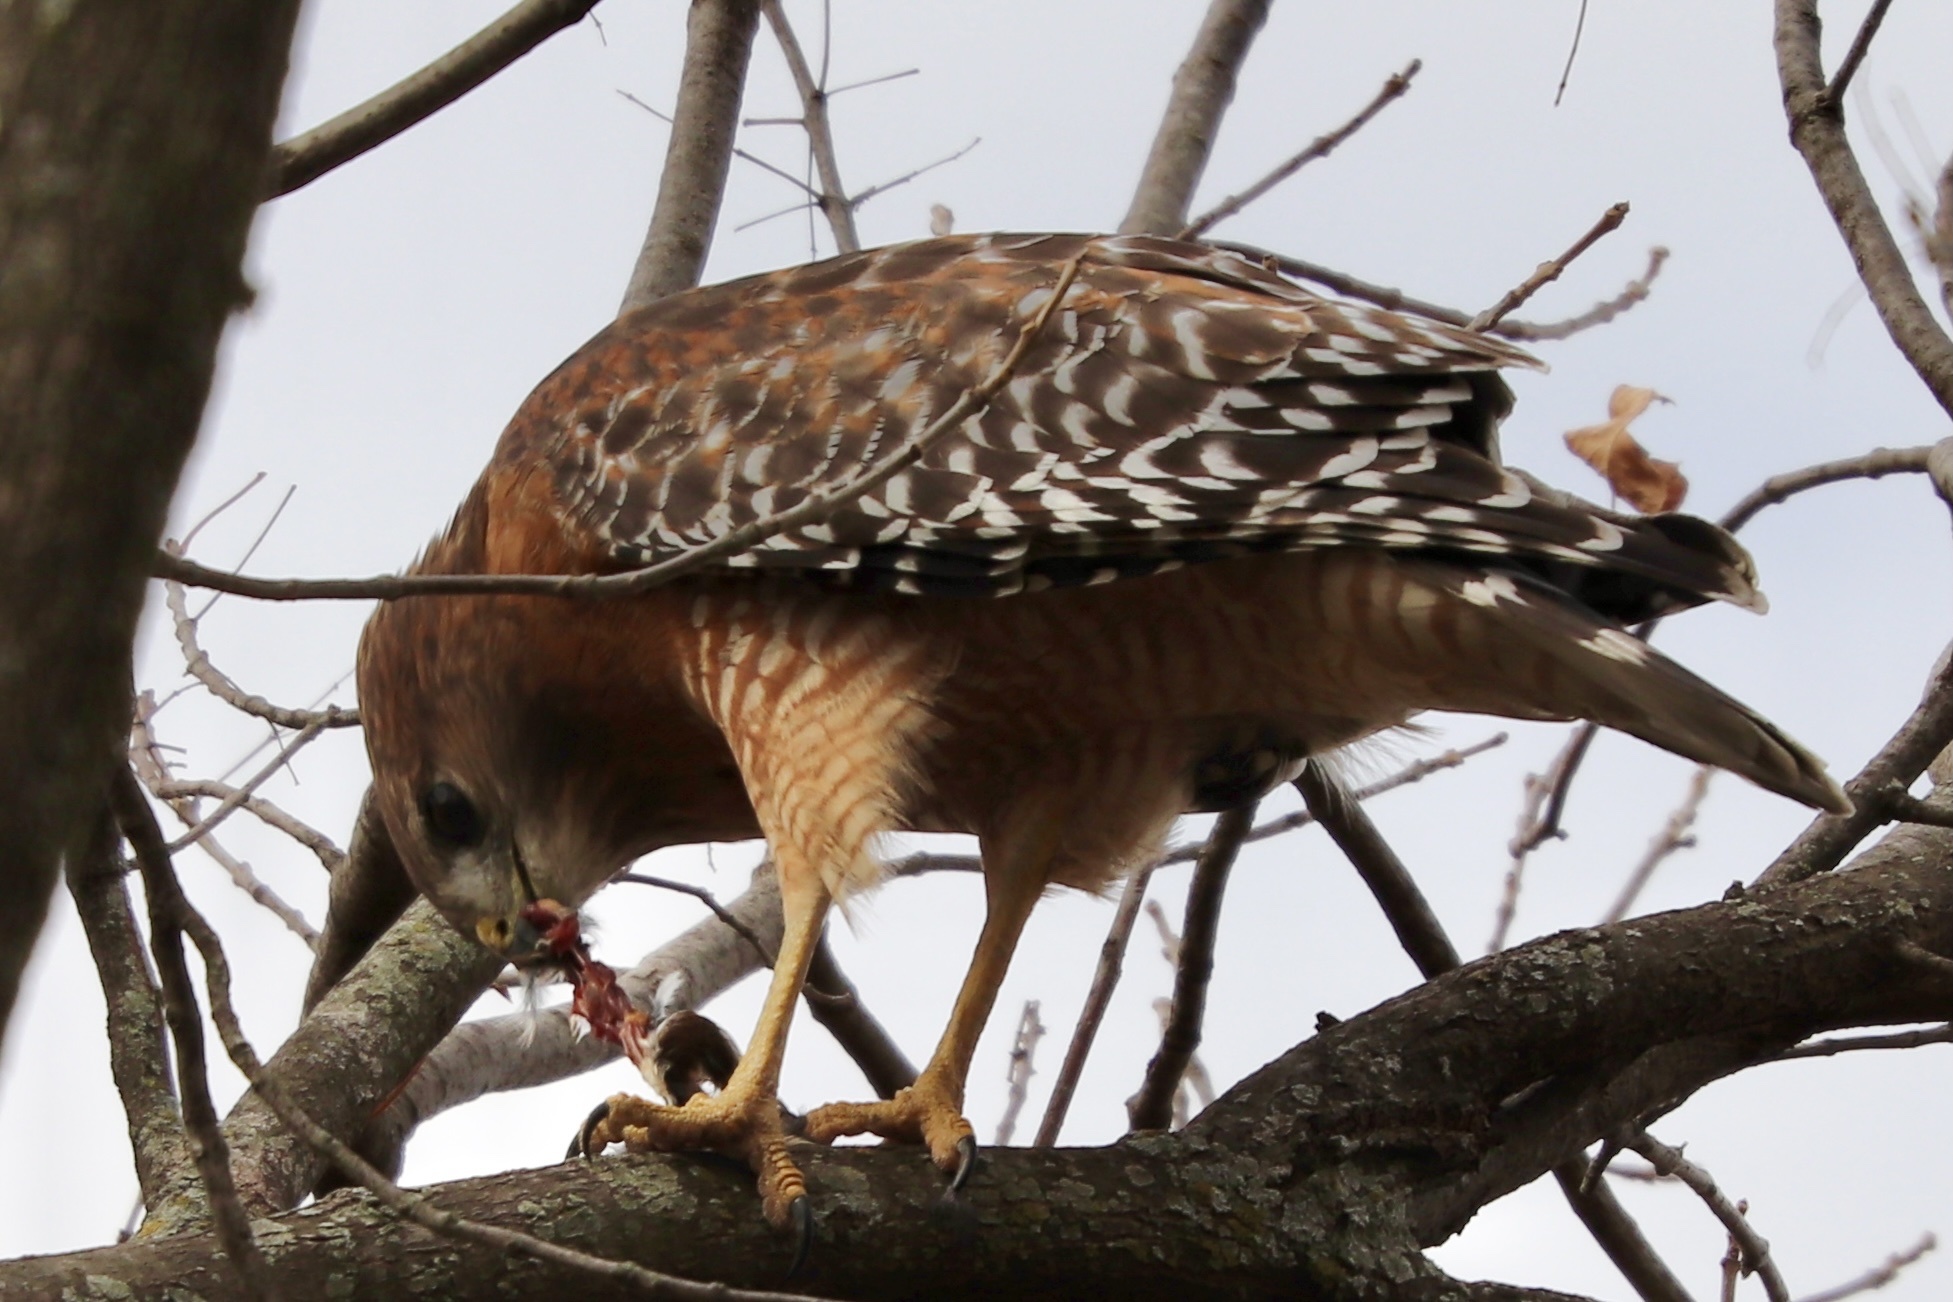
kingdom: Animalia
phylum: Chordata
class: Aves
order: Accipitriformes
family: Accipitridae
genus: Buteo
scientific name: Buteo lineatus
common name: Red-shouldered hawk
